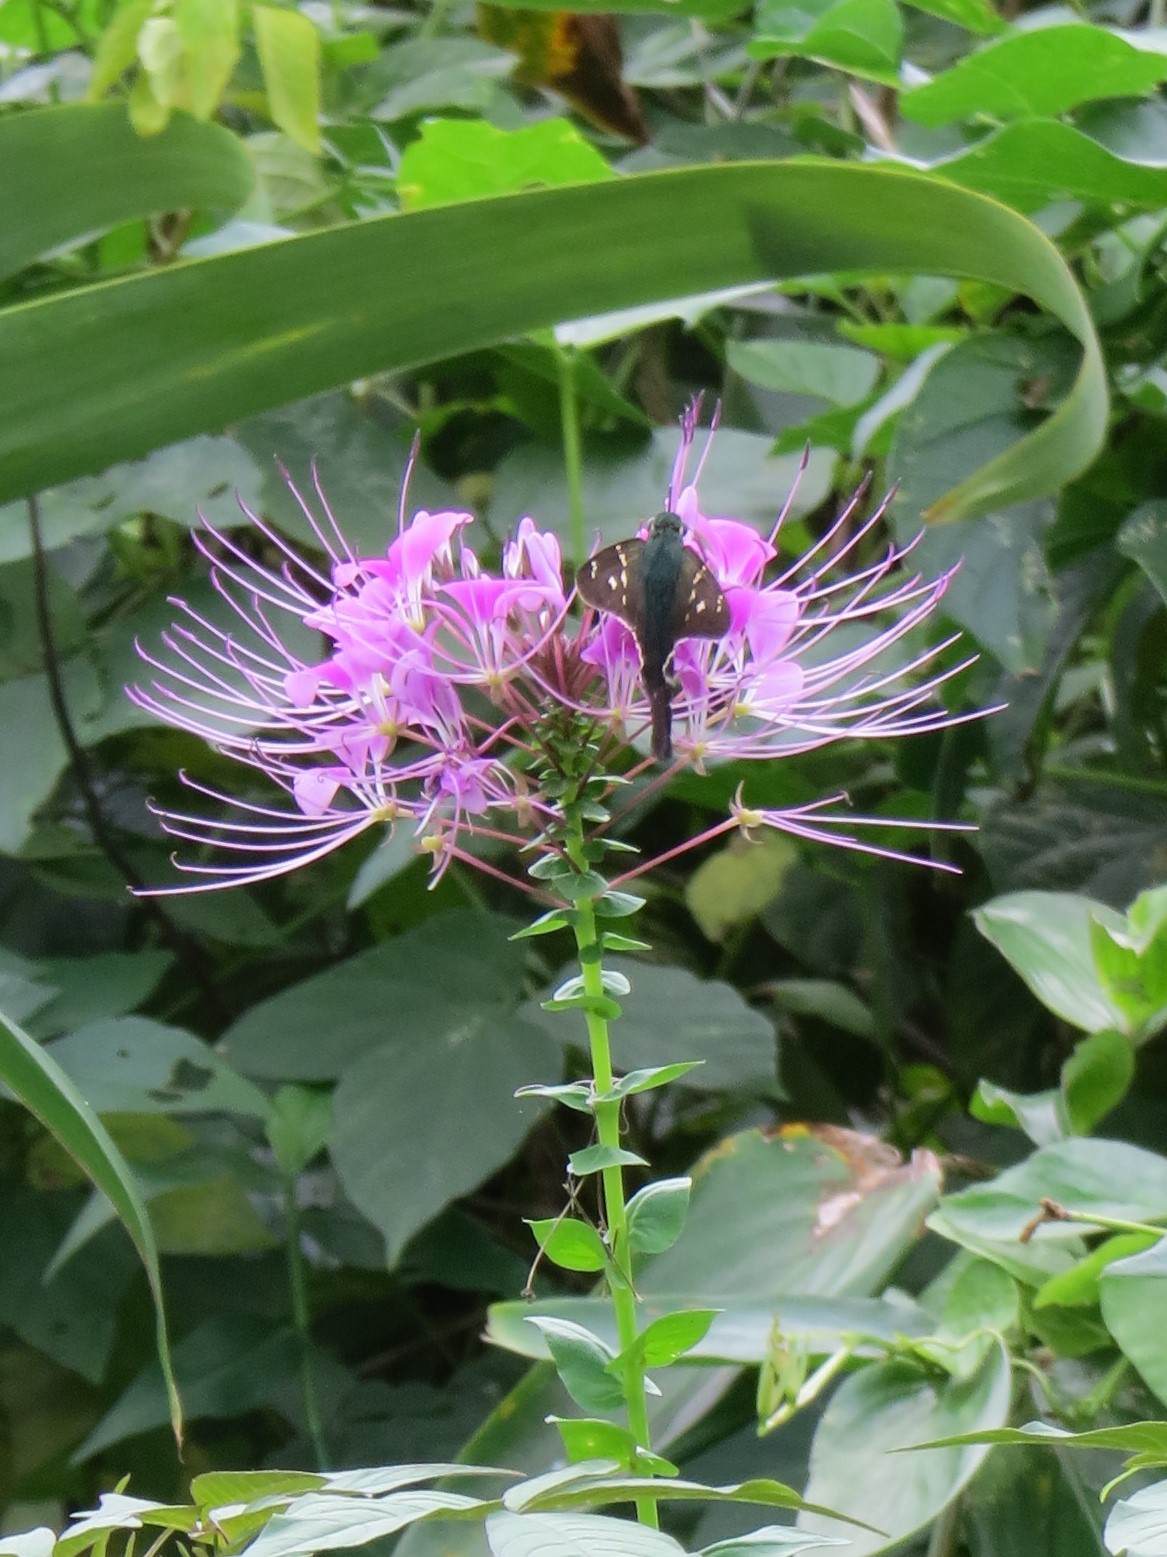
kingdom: Animalia
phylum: Arthropoda
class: Insecta
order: Lepidoptera
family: Hesperiidae
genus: Urbanus
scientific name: Urbanus proteus
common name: Long-tailed skipper
